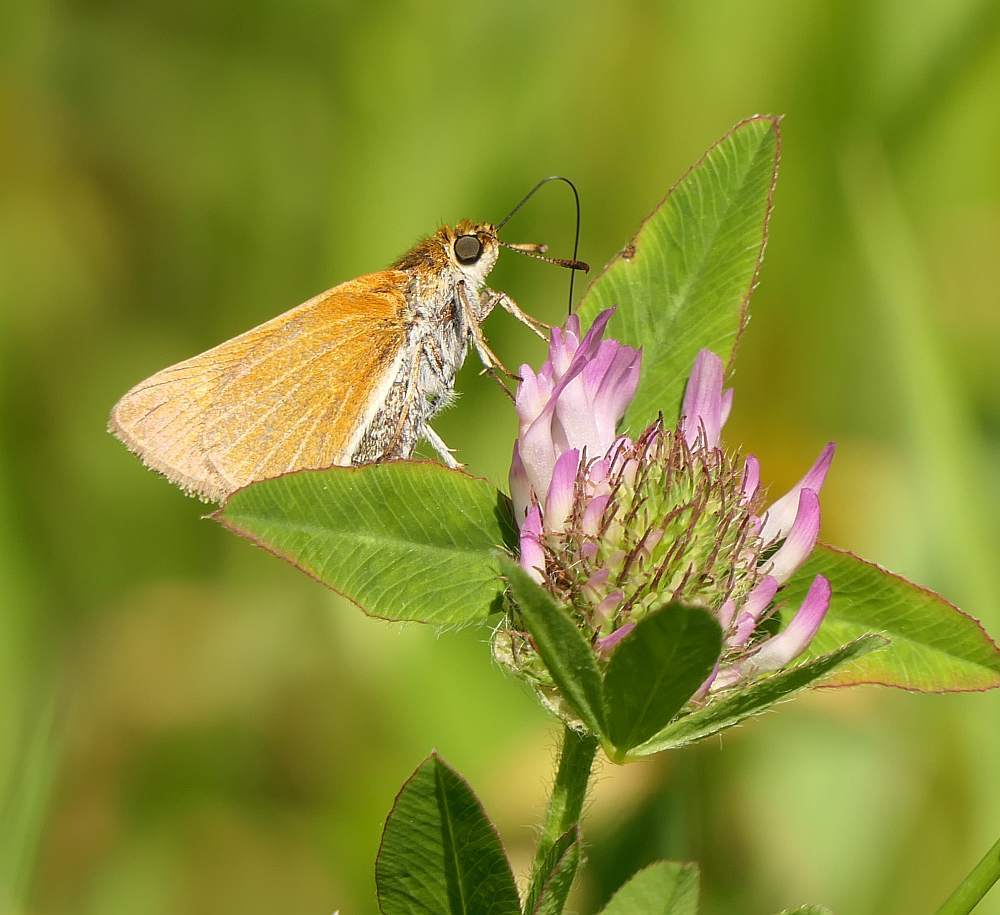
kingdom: Animalia
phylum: Arthropoda
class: Insecta
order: Lepidoptera
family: Hesperiidae
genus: Euphyes
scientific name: Euphyes bimacula
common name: Two-spotted skipper
